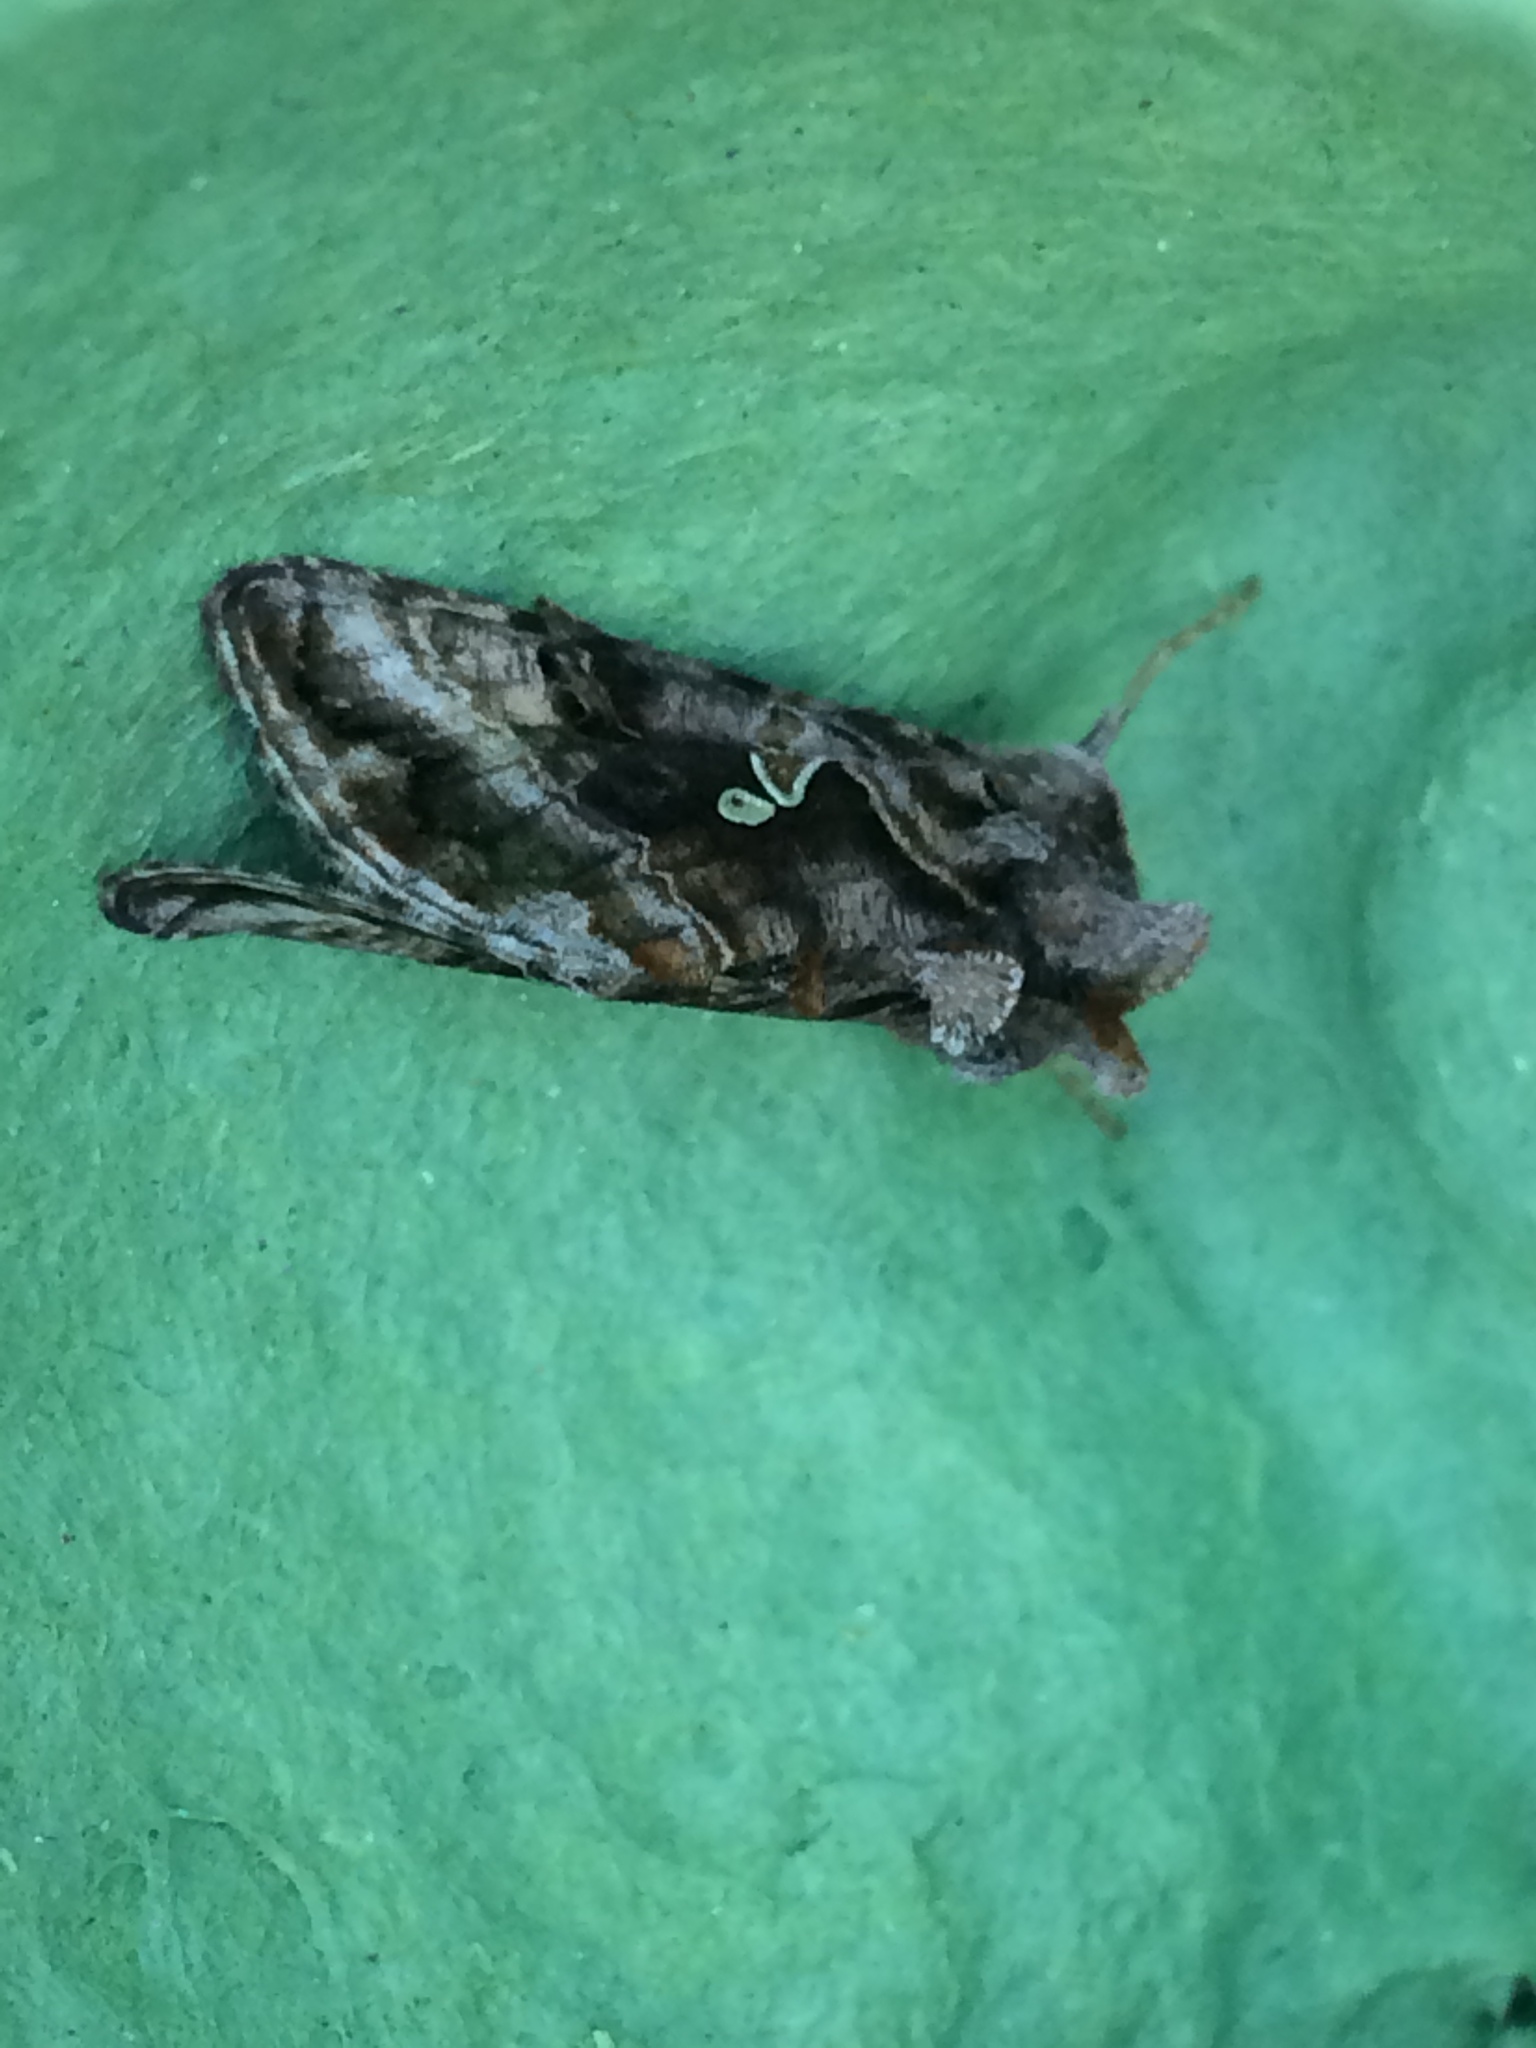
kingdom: Animalia
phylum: Arthropoda
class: Insecta
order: Lepidoptera
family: Noctuidae
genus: Autographa
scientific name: Autographa gamma
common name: Silver y
